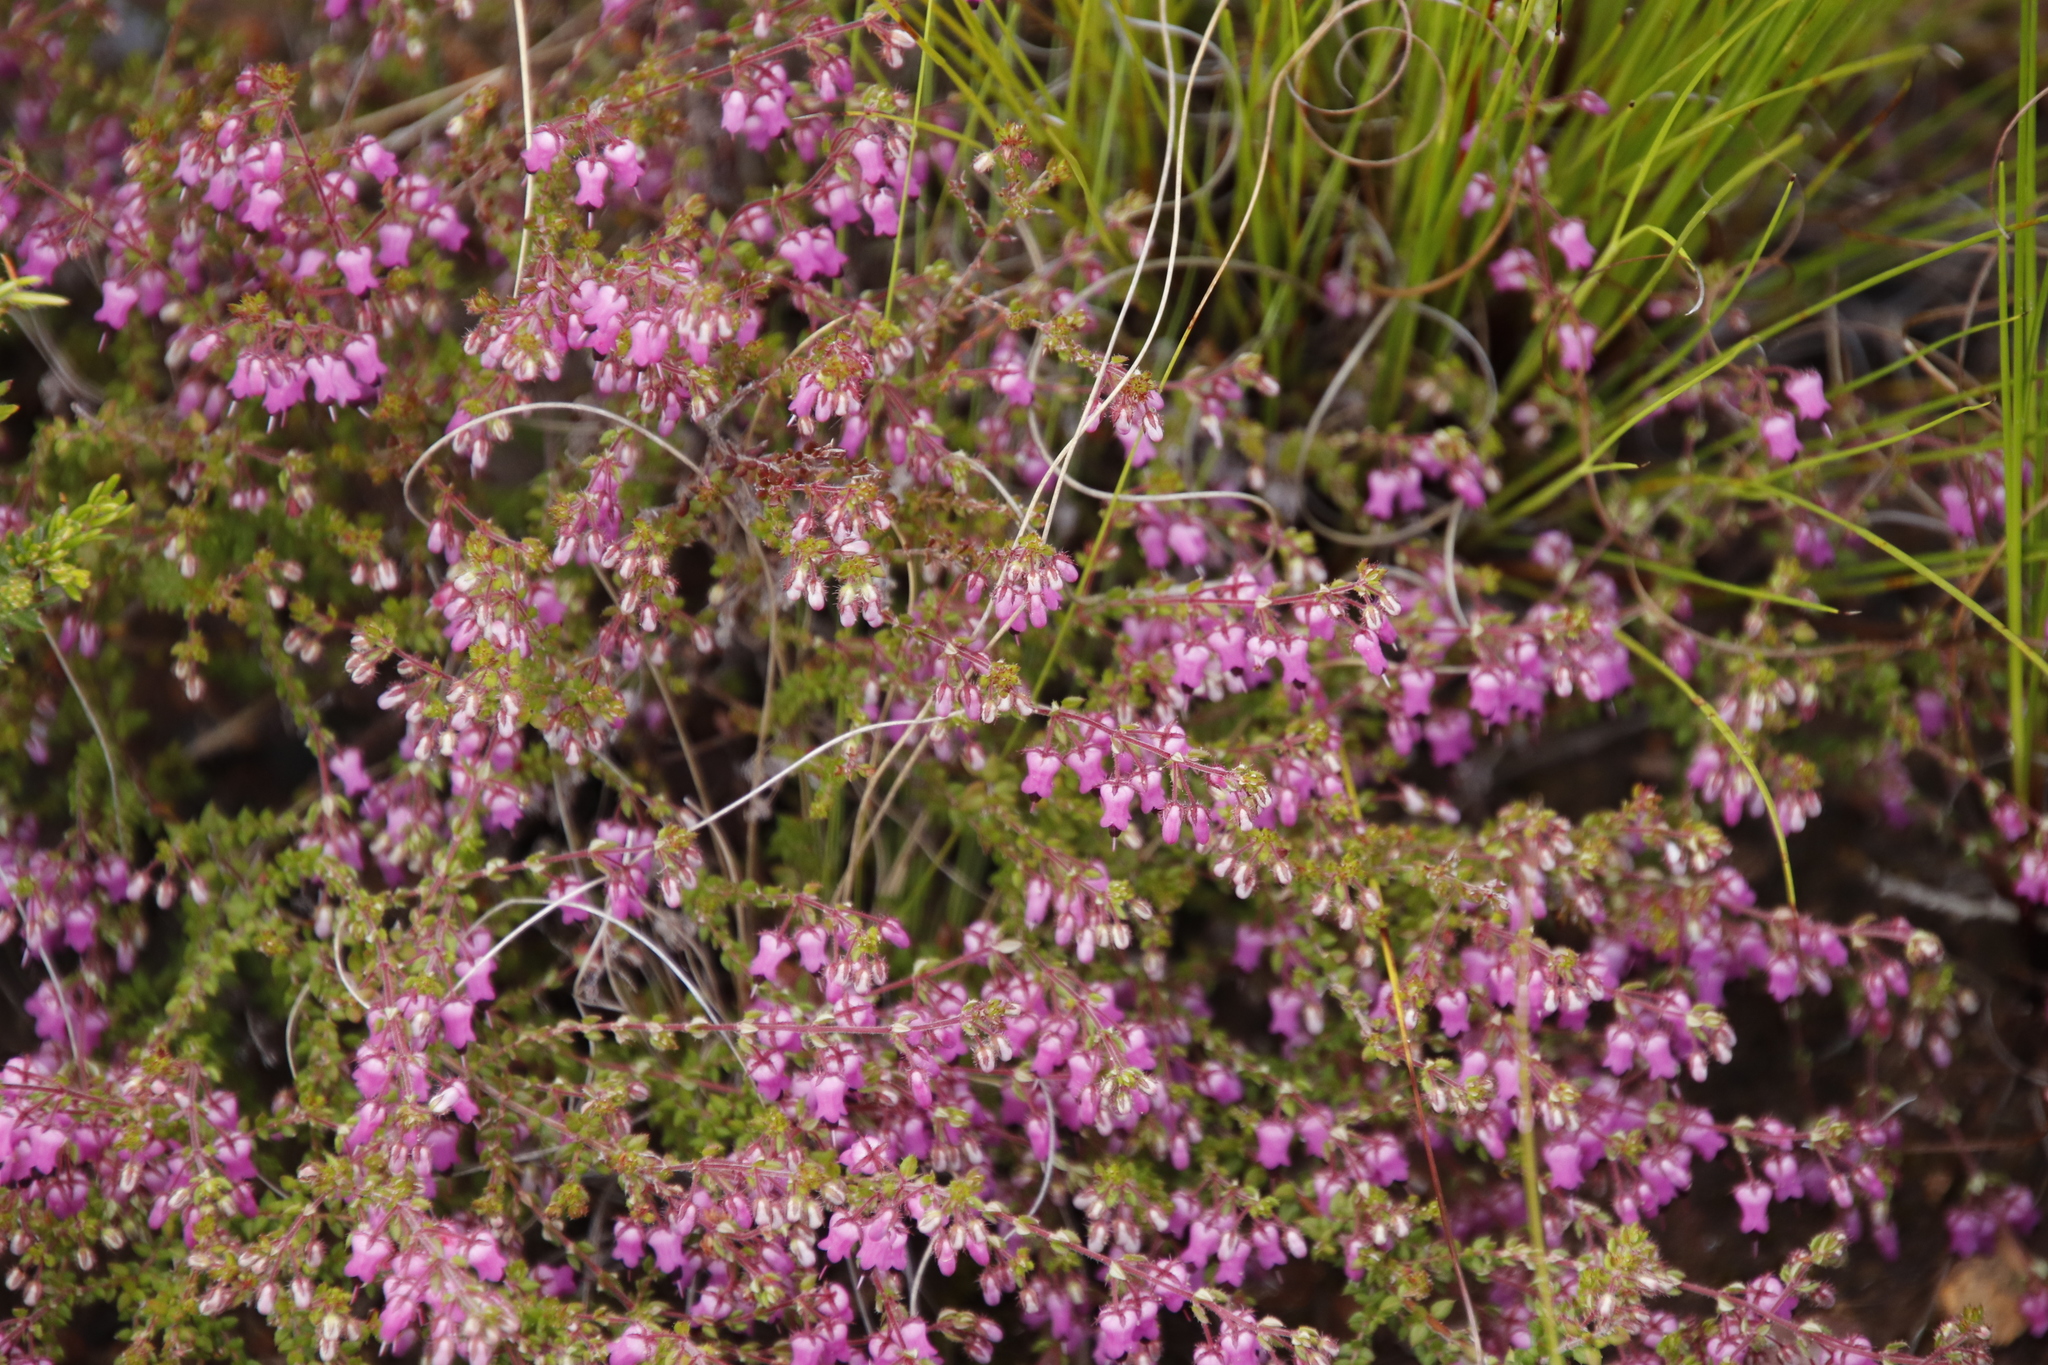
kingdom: Plantae
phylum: Tracheophyta
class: Magnoliopsida
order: Ericales
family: Ericaceae
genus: Erica
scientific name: Erica thimifolia
